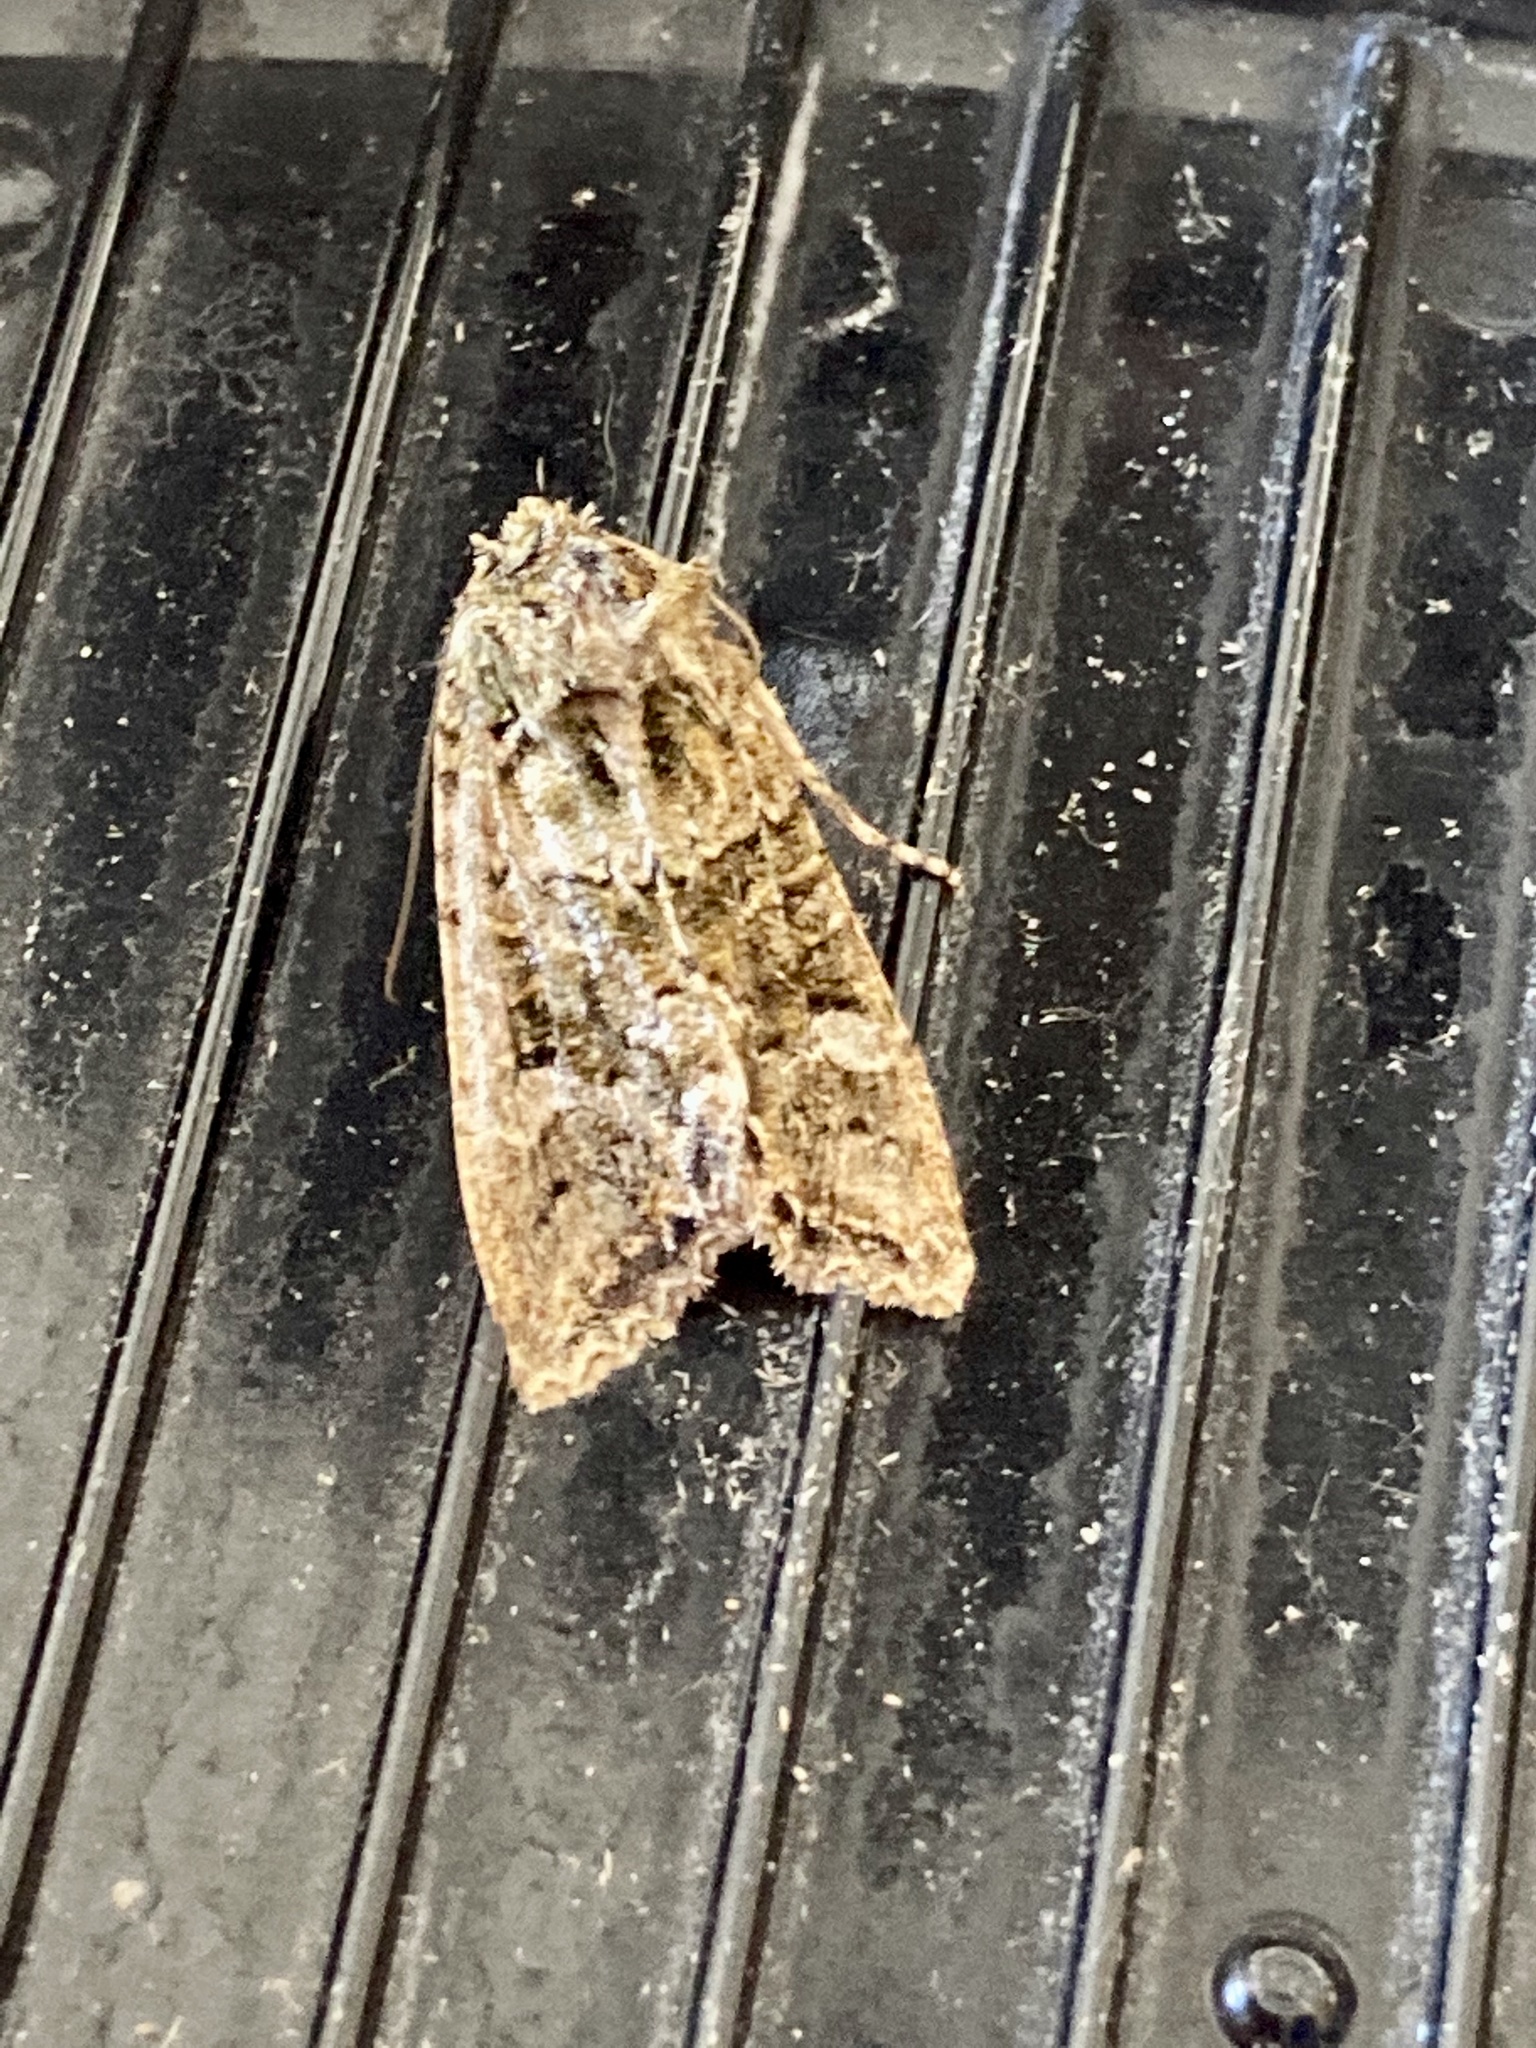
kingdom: Animalia
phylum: Arthropoda
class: Insecta
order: Lepidoptera
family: Noctuidae
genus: Ichneutica
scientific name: Ichneutica
